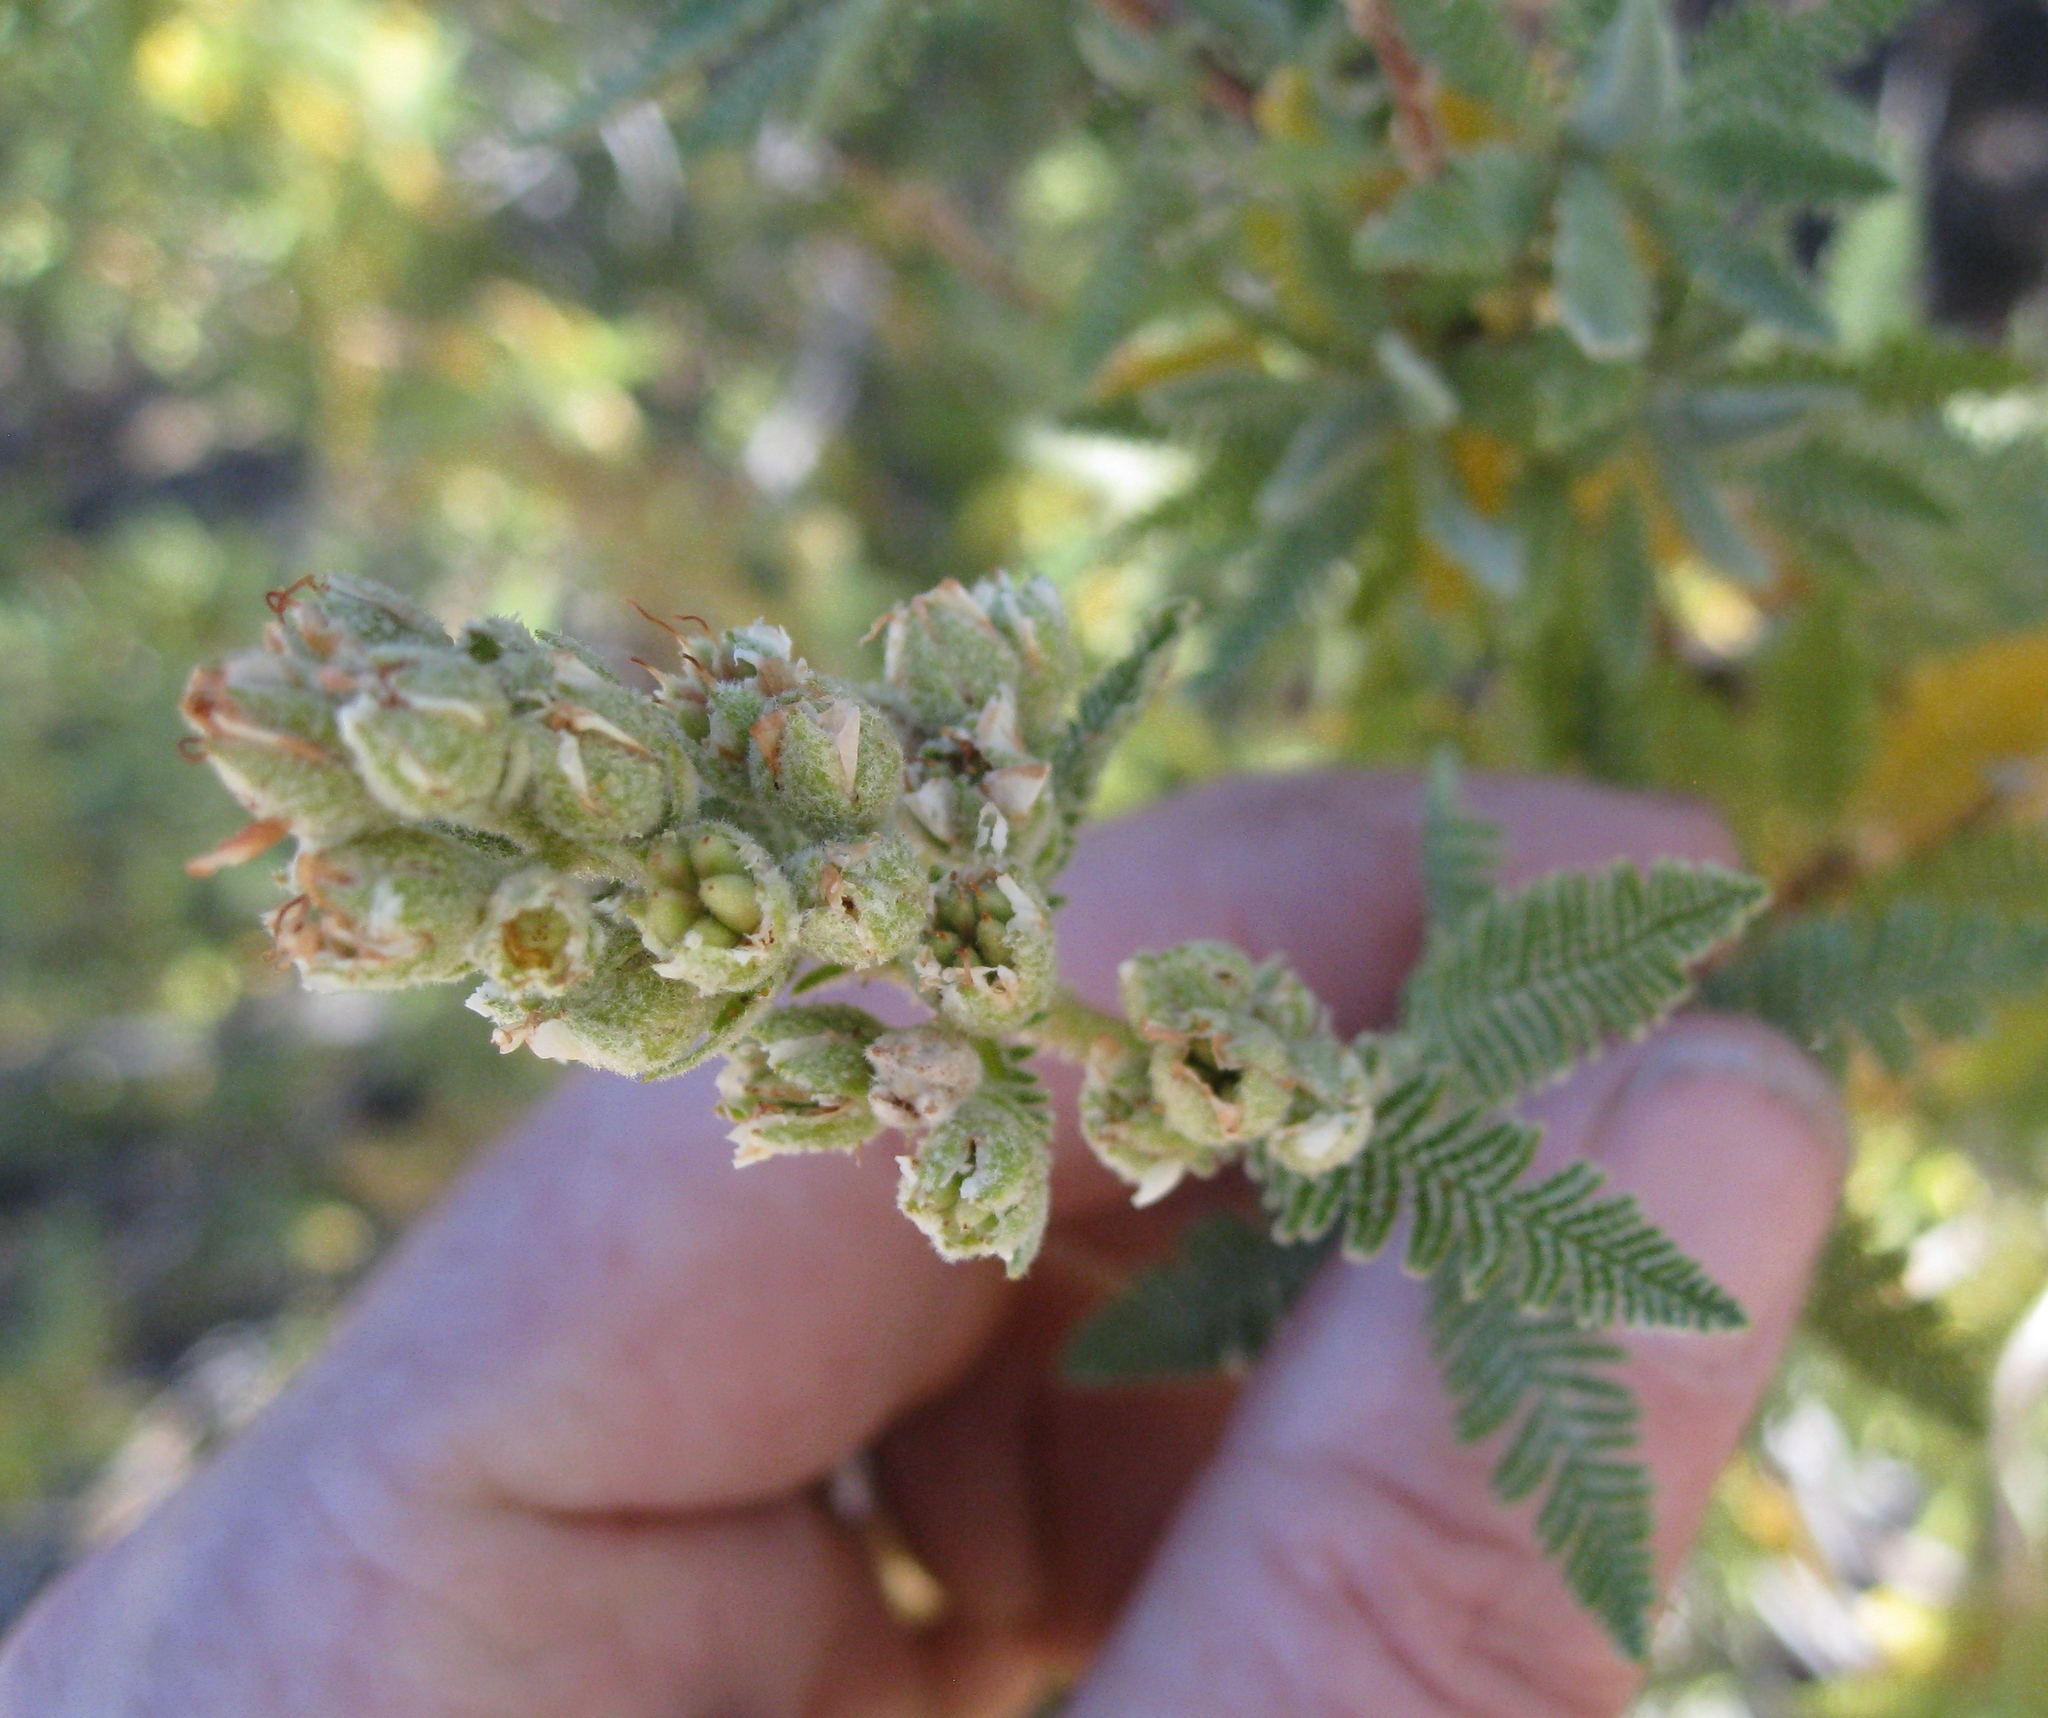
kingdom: Plantae
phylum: Tracheophyta
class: Magnoliopsida
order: Rosales
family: Rosaceae
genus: Chamaebatiaria
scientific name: Chamaebatiaria millefolium
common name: Fernbush
